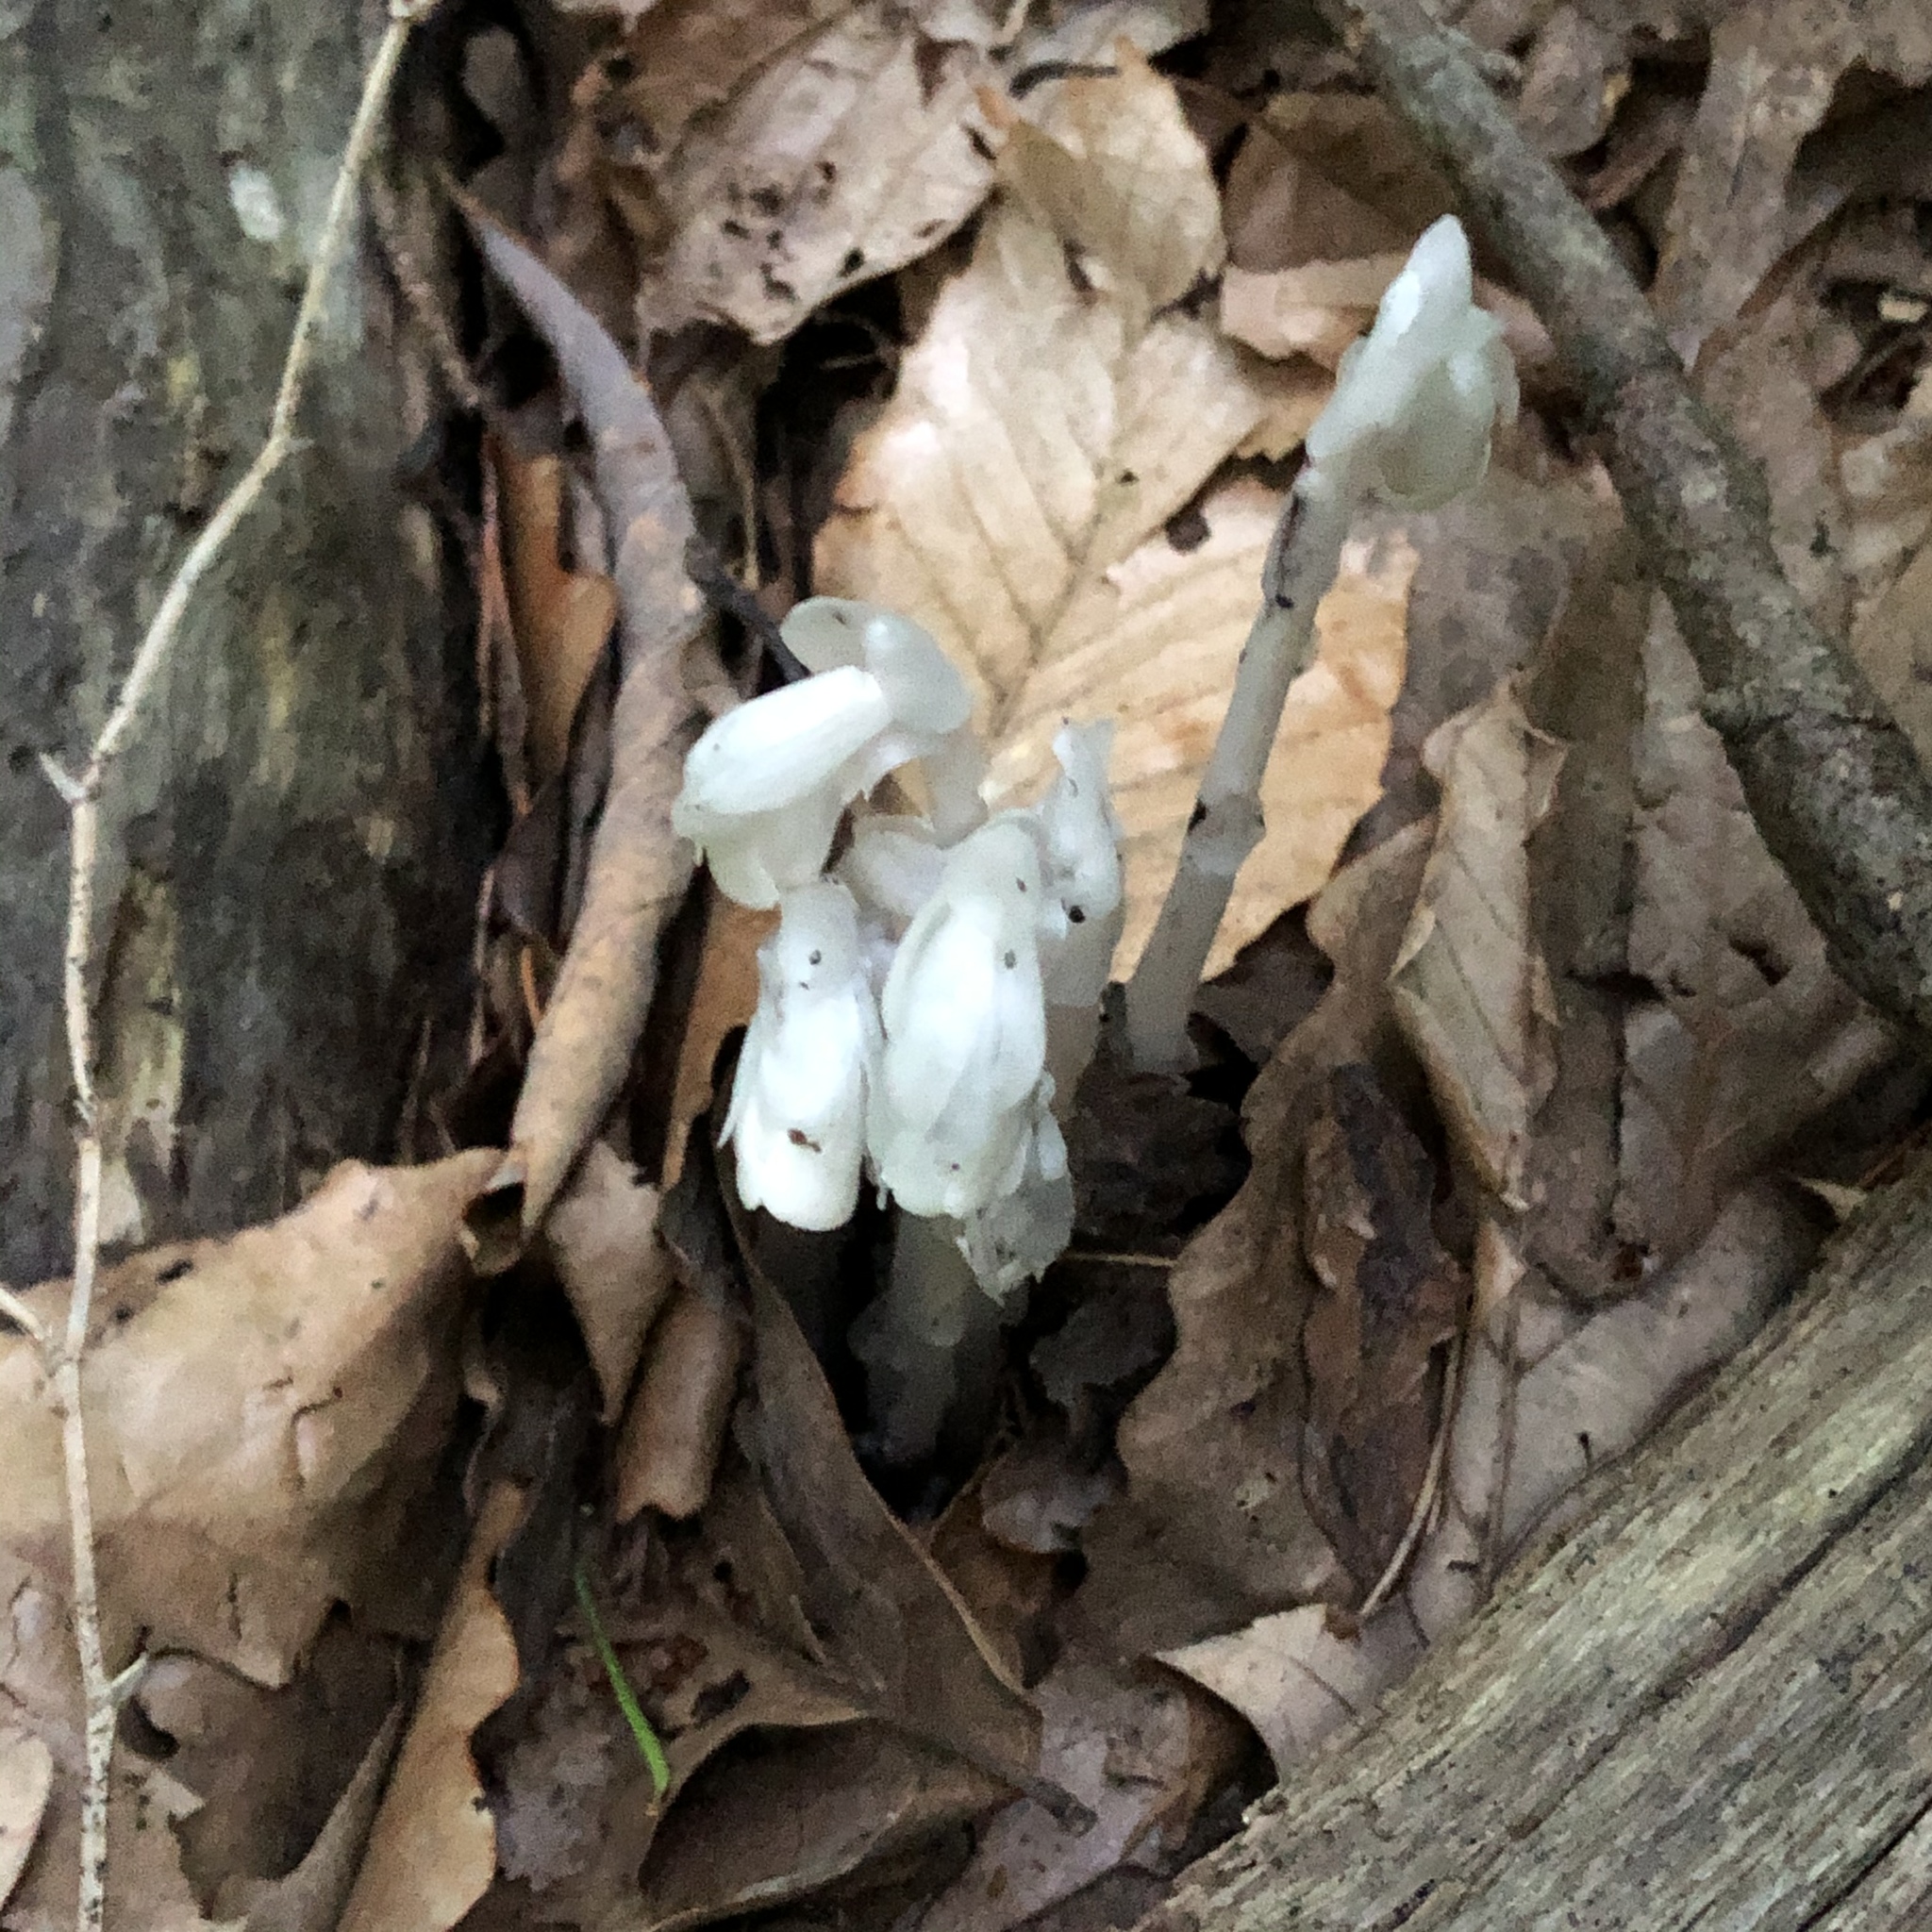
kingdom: Plantae
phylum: Tracheophyta
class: Magnoliopsida
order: Ericales
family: Ericaceae
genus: Monotropa
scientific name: Monotropa uniflora
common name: Convulsion root
